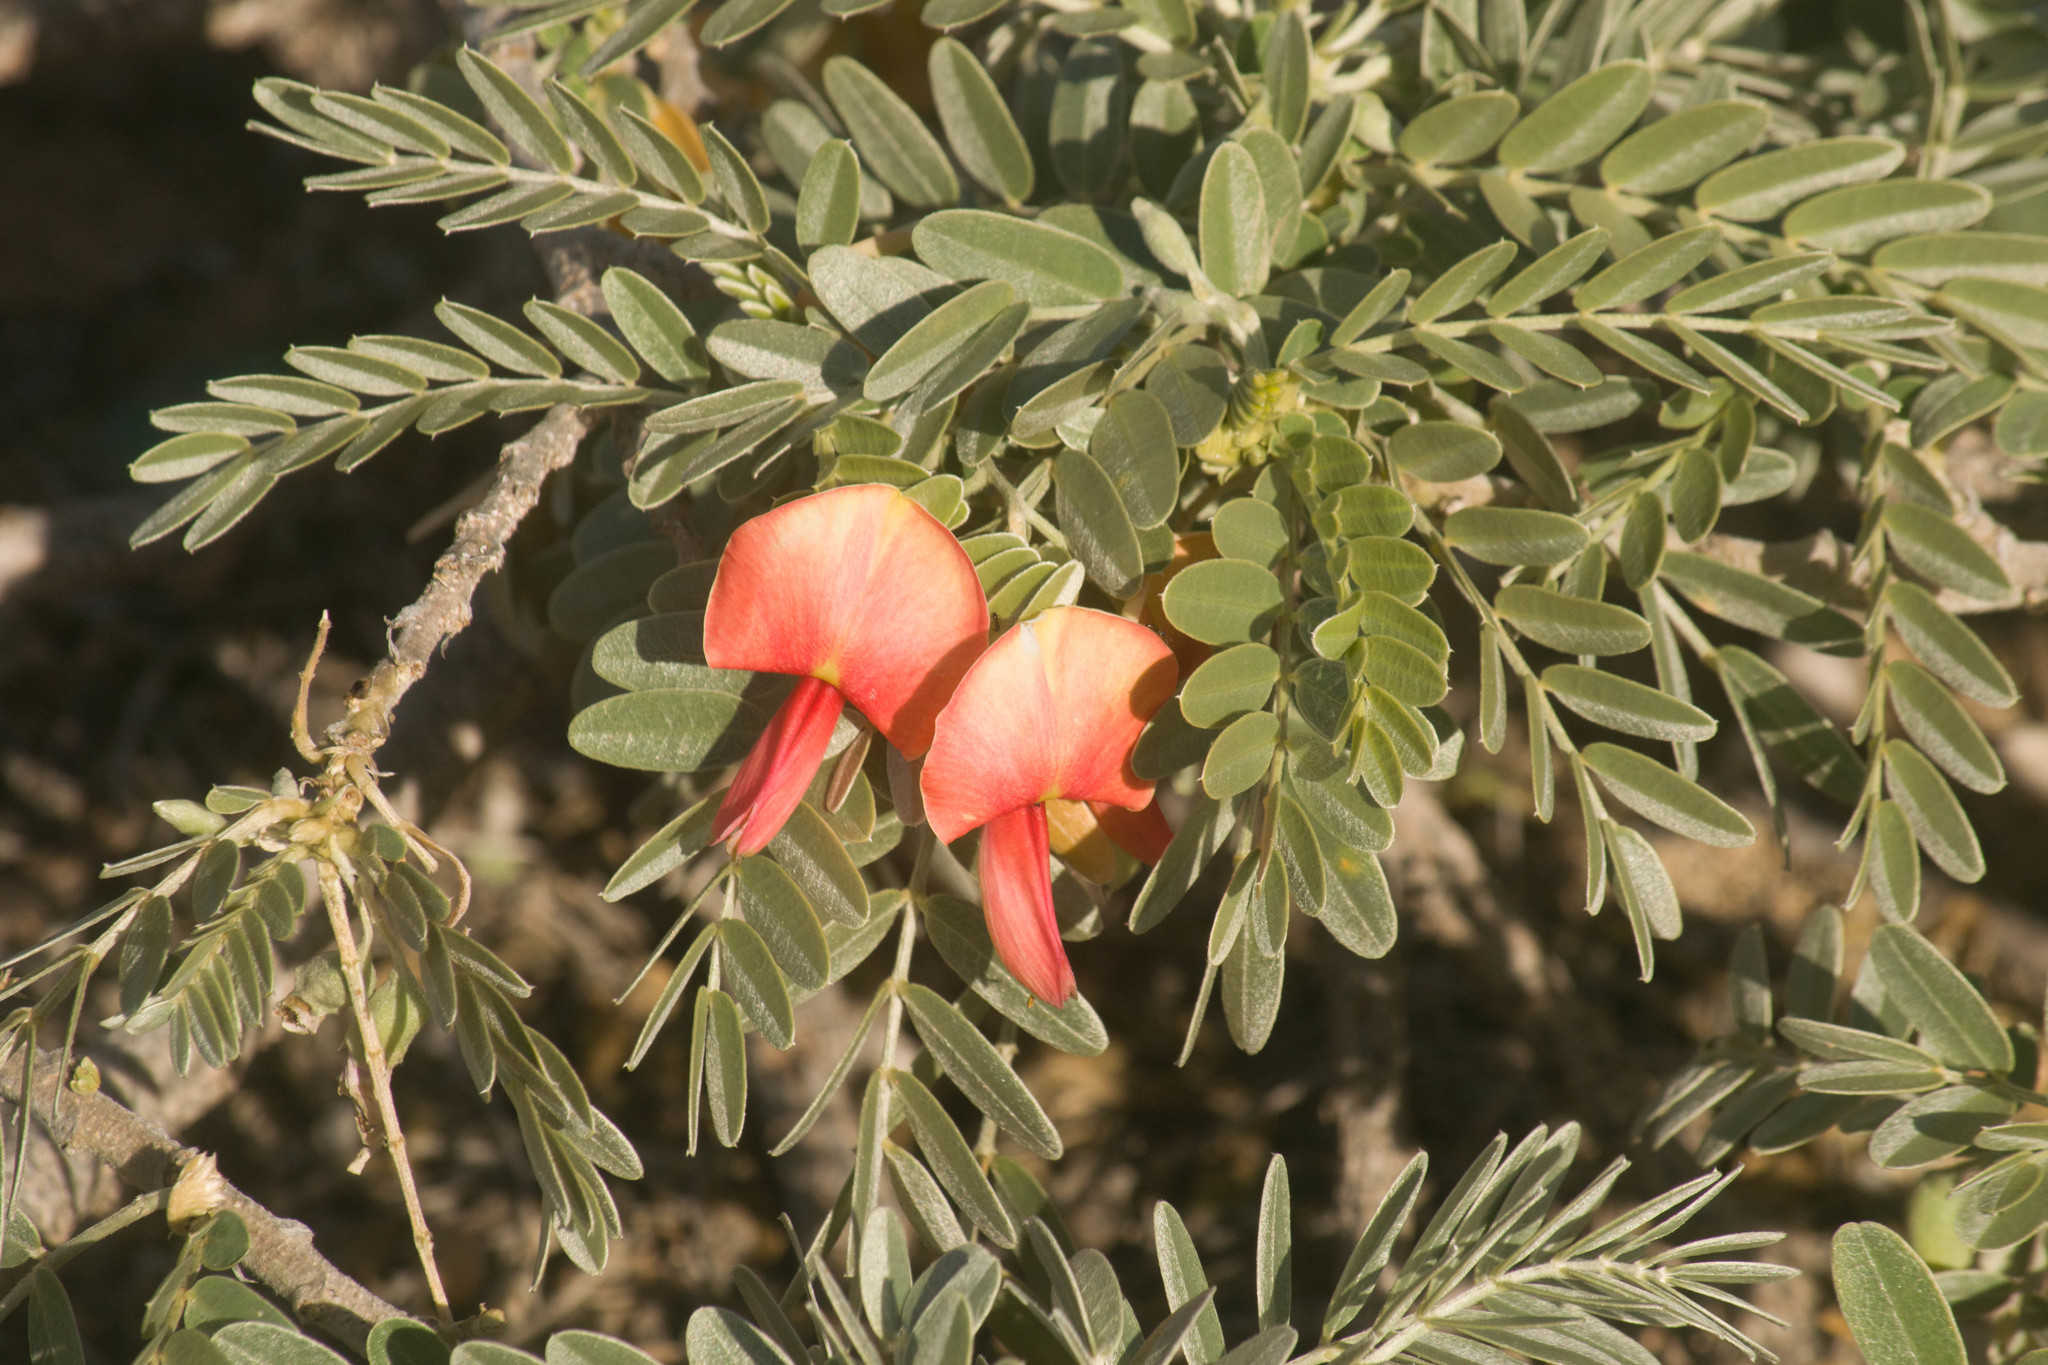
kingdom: Plantae
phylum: Tracheophyta
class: Magnoliopsida
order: Fabales
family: Fabaceae
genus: Sesbania
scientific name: Sesbania tomentosa
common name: `ohai
